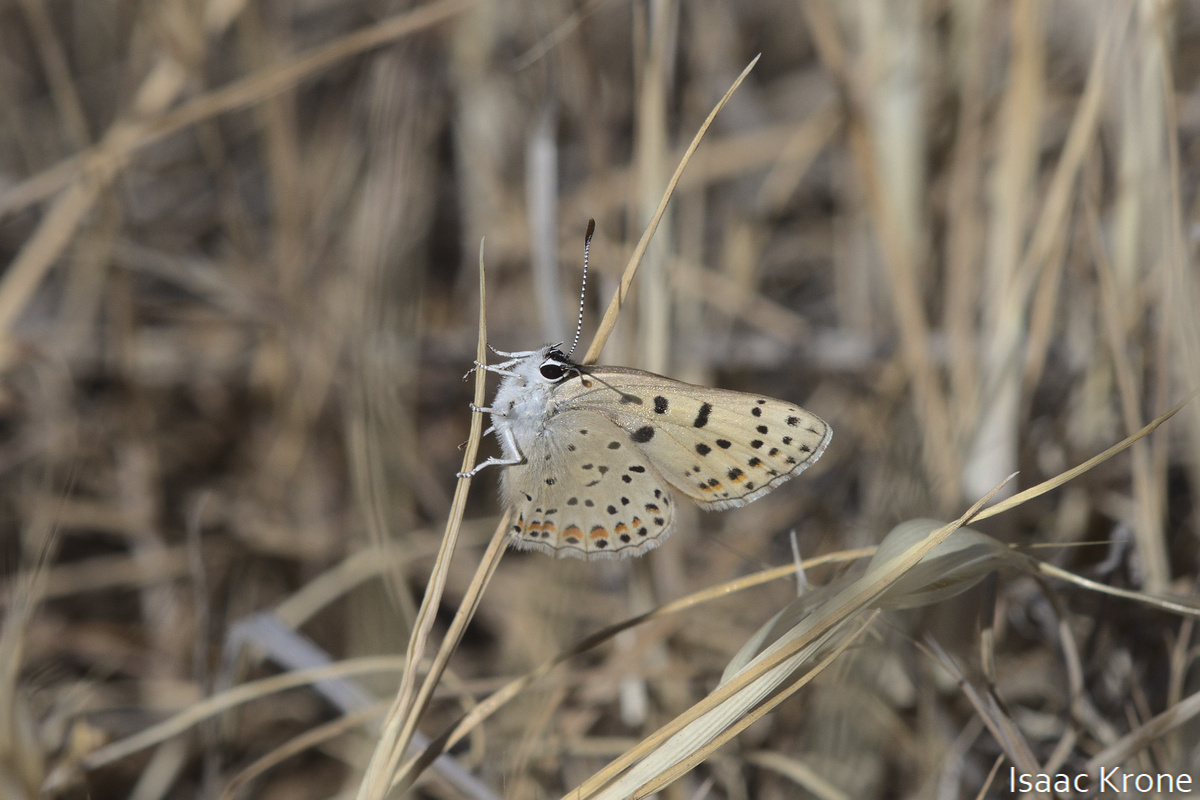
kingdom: Animalia
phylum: Arthropoda
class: Insecta
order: Lepidoptera
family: Lycaenidae
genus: Tharsalea
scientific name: Tharsalea gorgon
